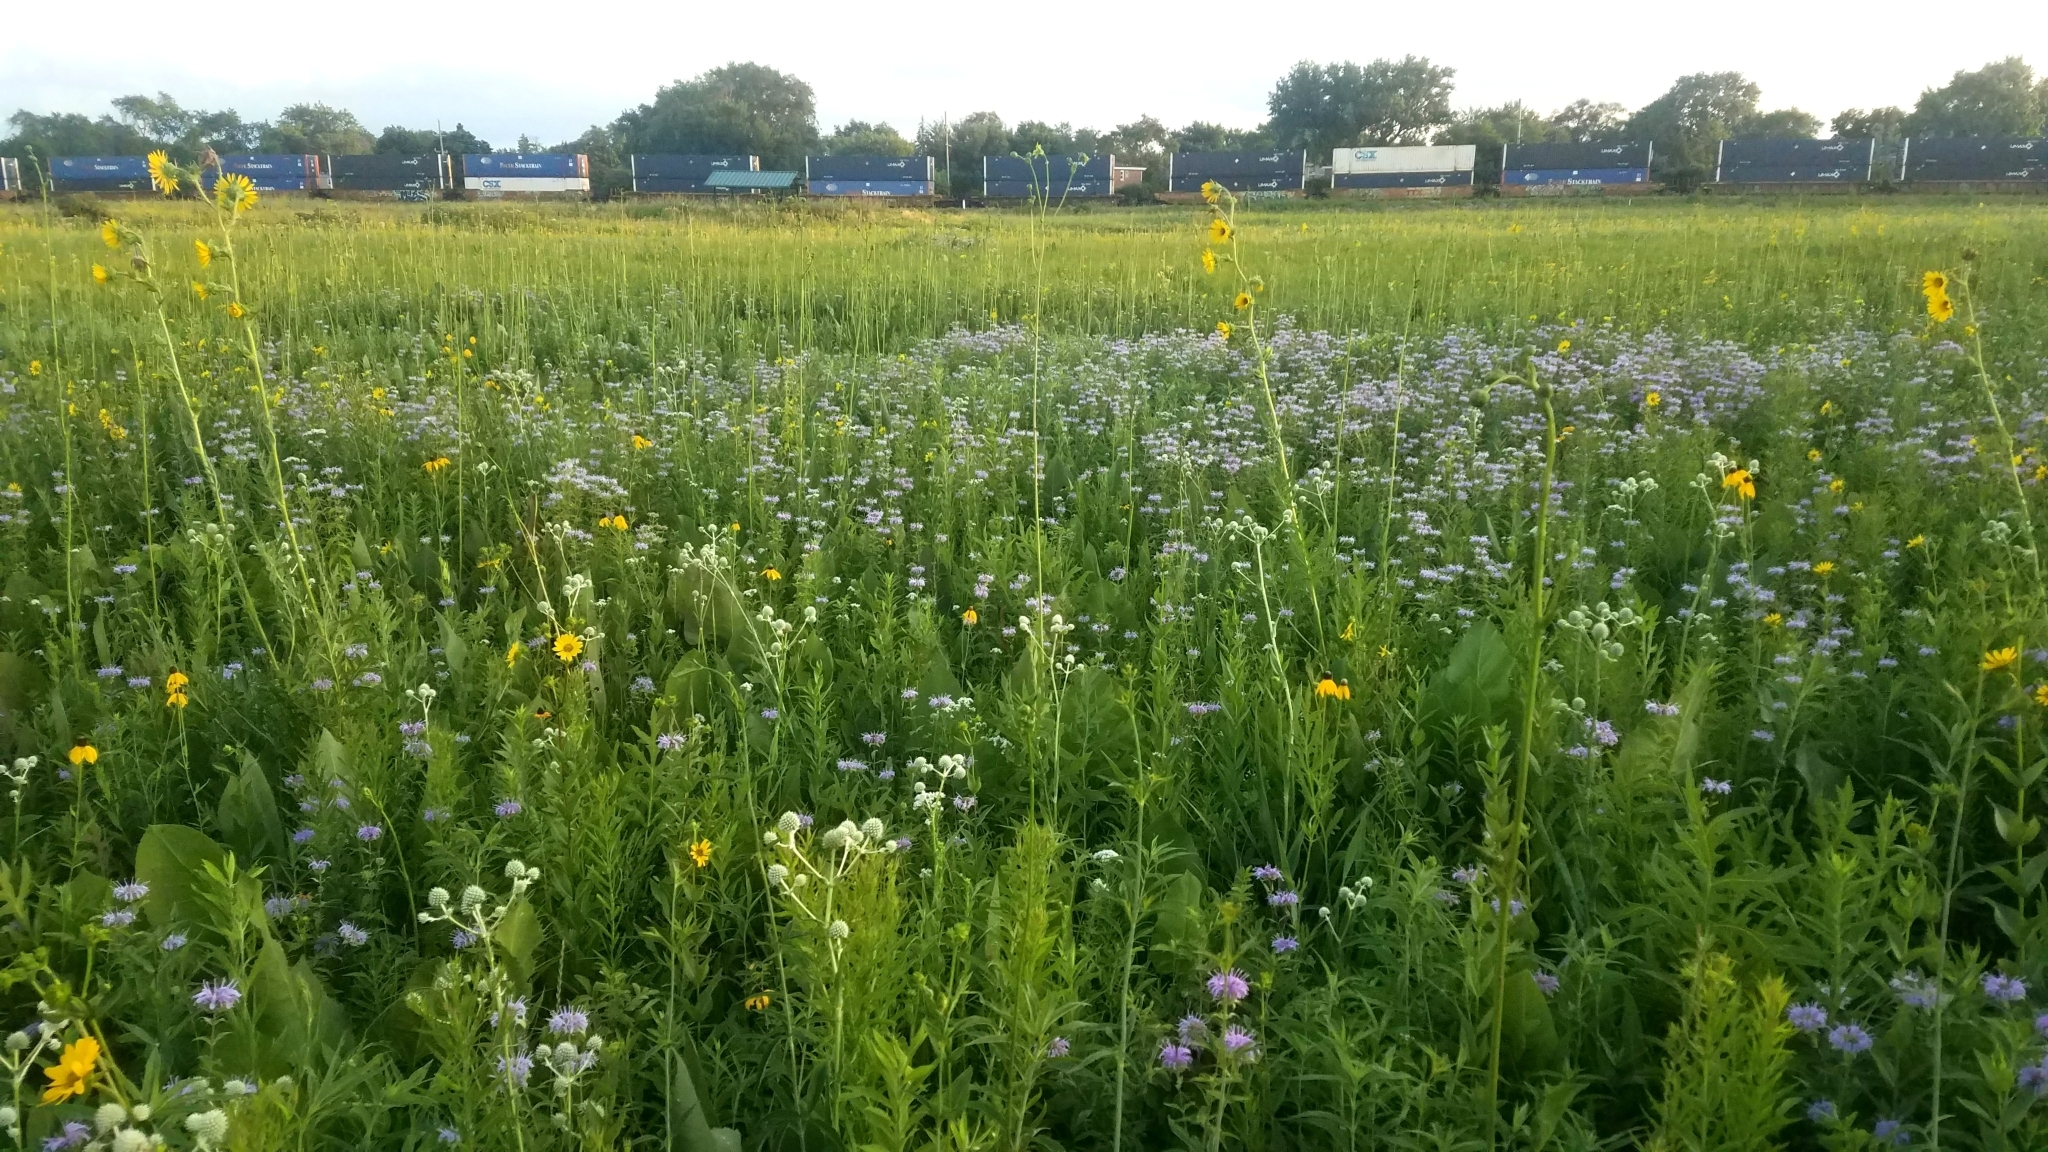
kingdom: Plantae
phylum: Tracheophyta
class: Magnoliopsida
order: Asterales
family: Asteraceae
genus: Silphium
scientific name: Silphium terebinthinaceum
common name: Basal-leaf rosinweed
